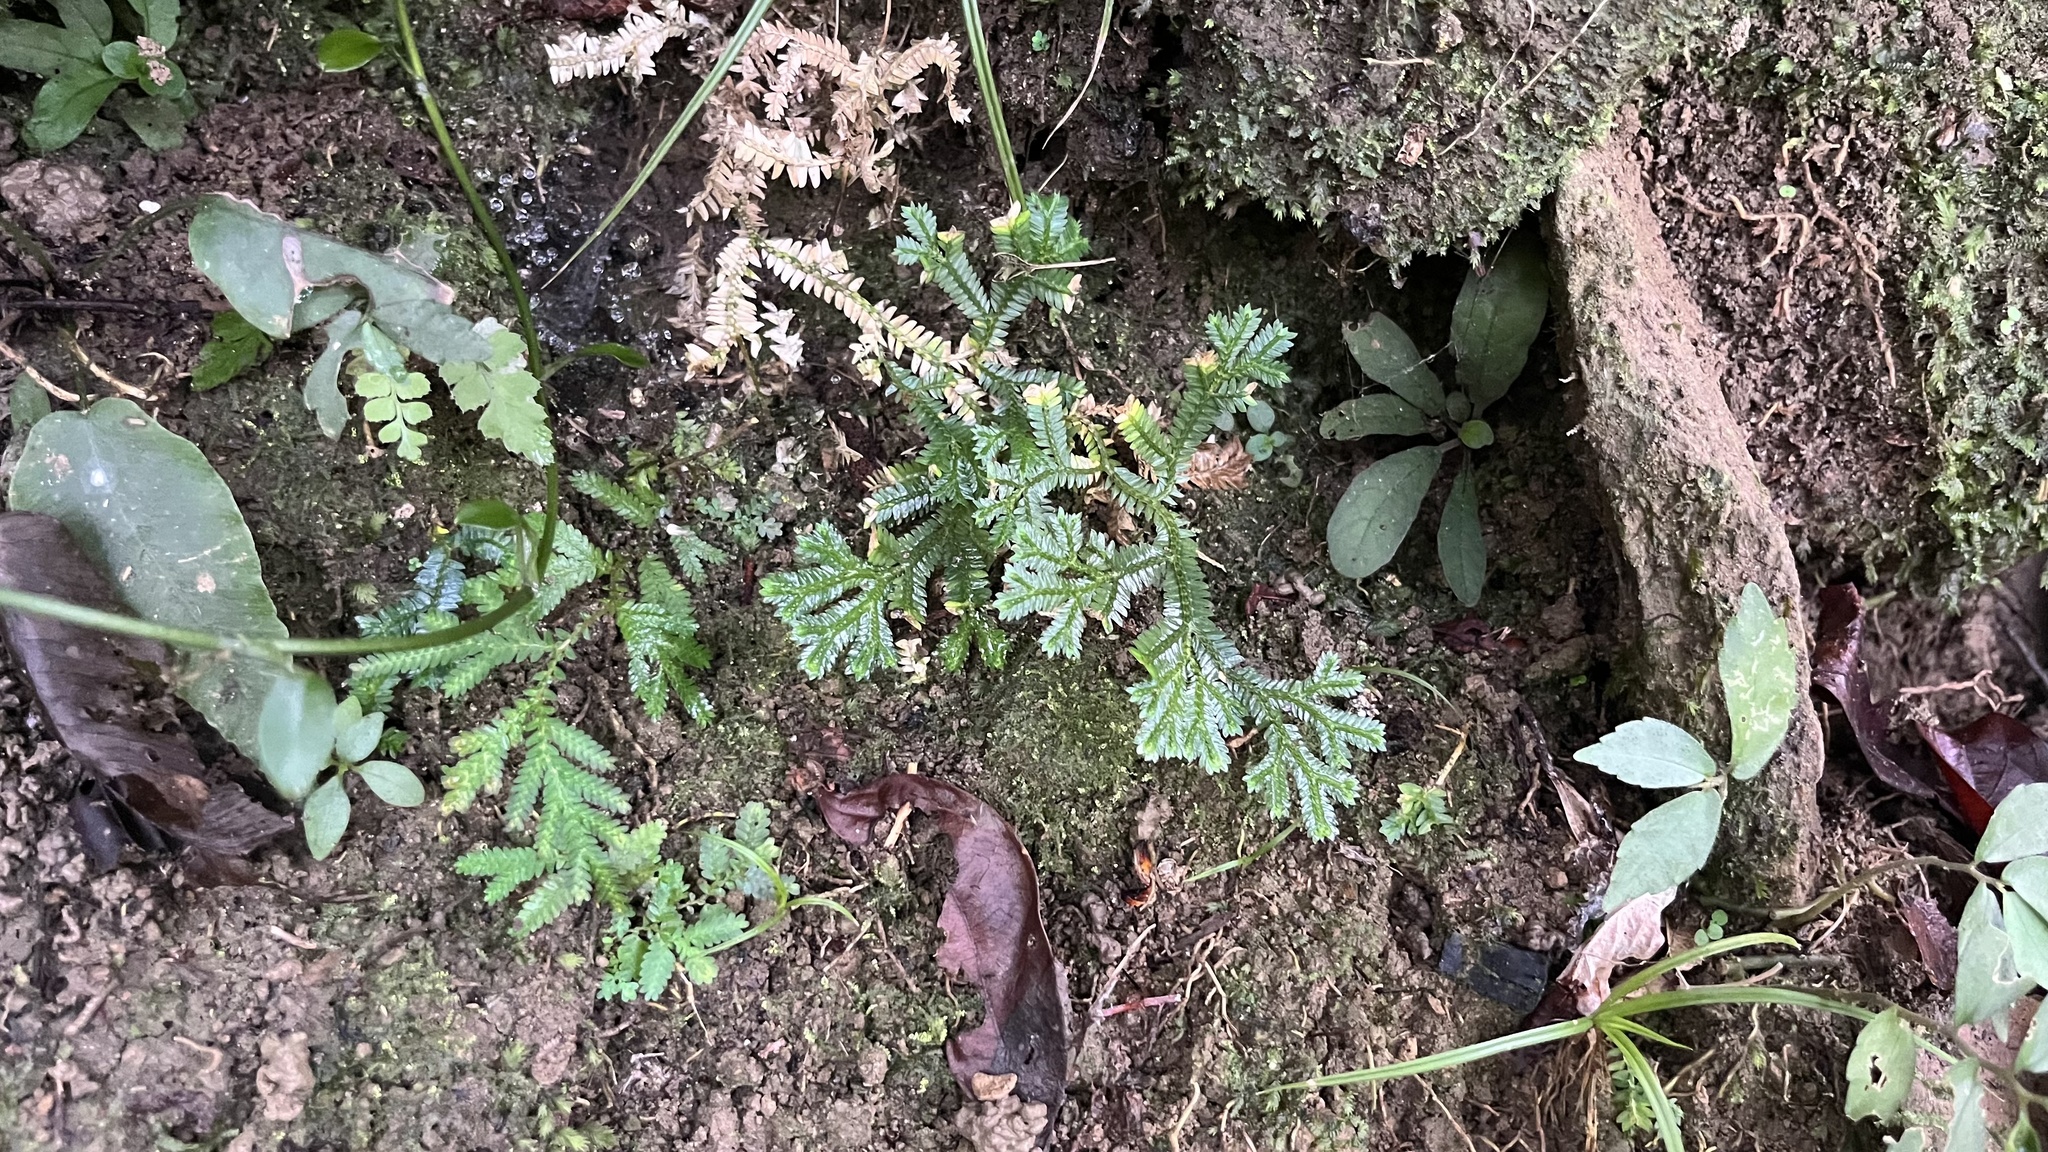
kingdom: Plantae
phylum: Tracheophyta
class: Lycopodiopsida
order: Selaginellales
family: Selaginellaceae
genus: Selaginella
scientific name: Selaginella doederleinii
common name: Greater selaginella
